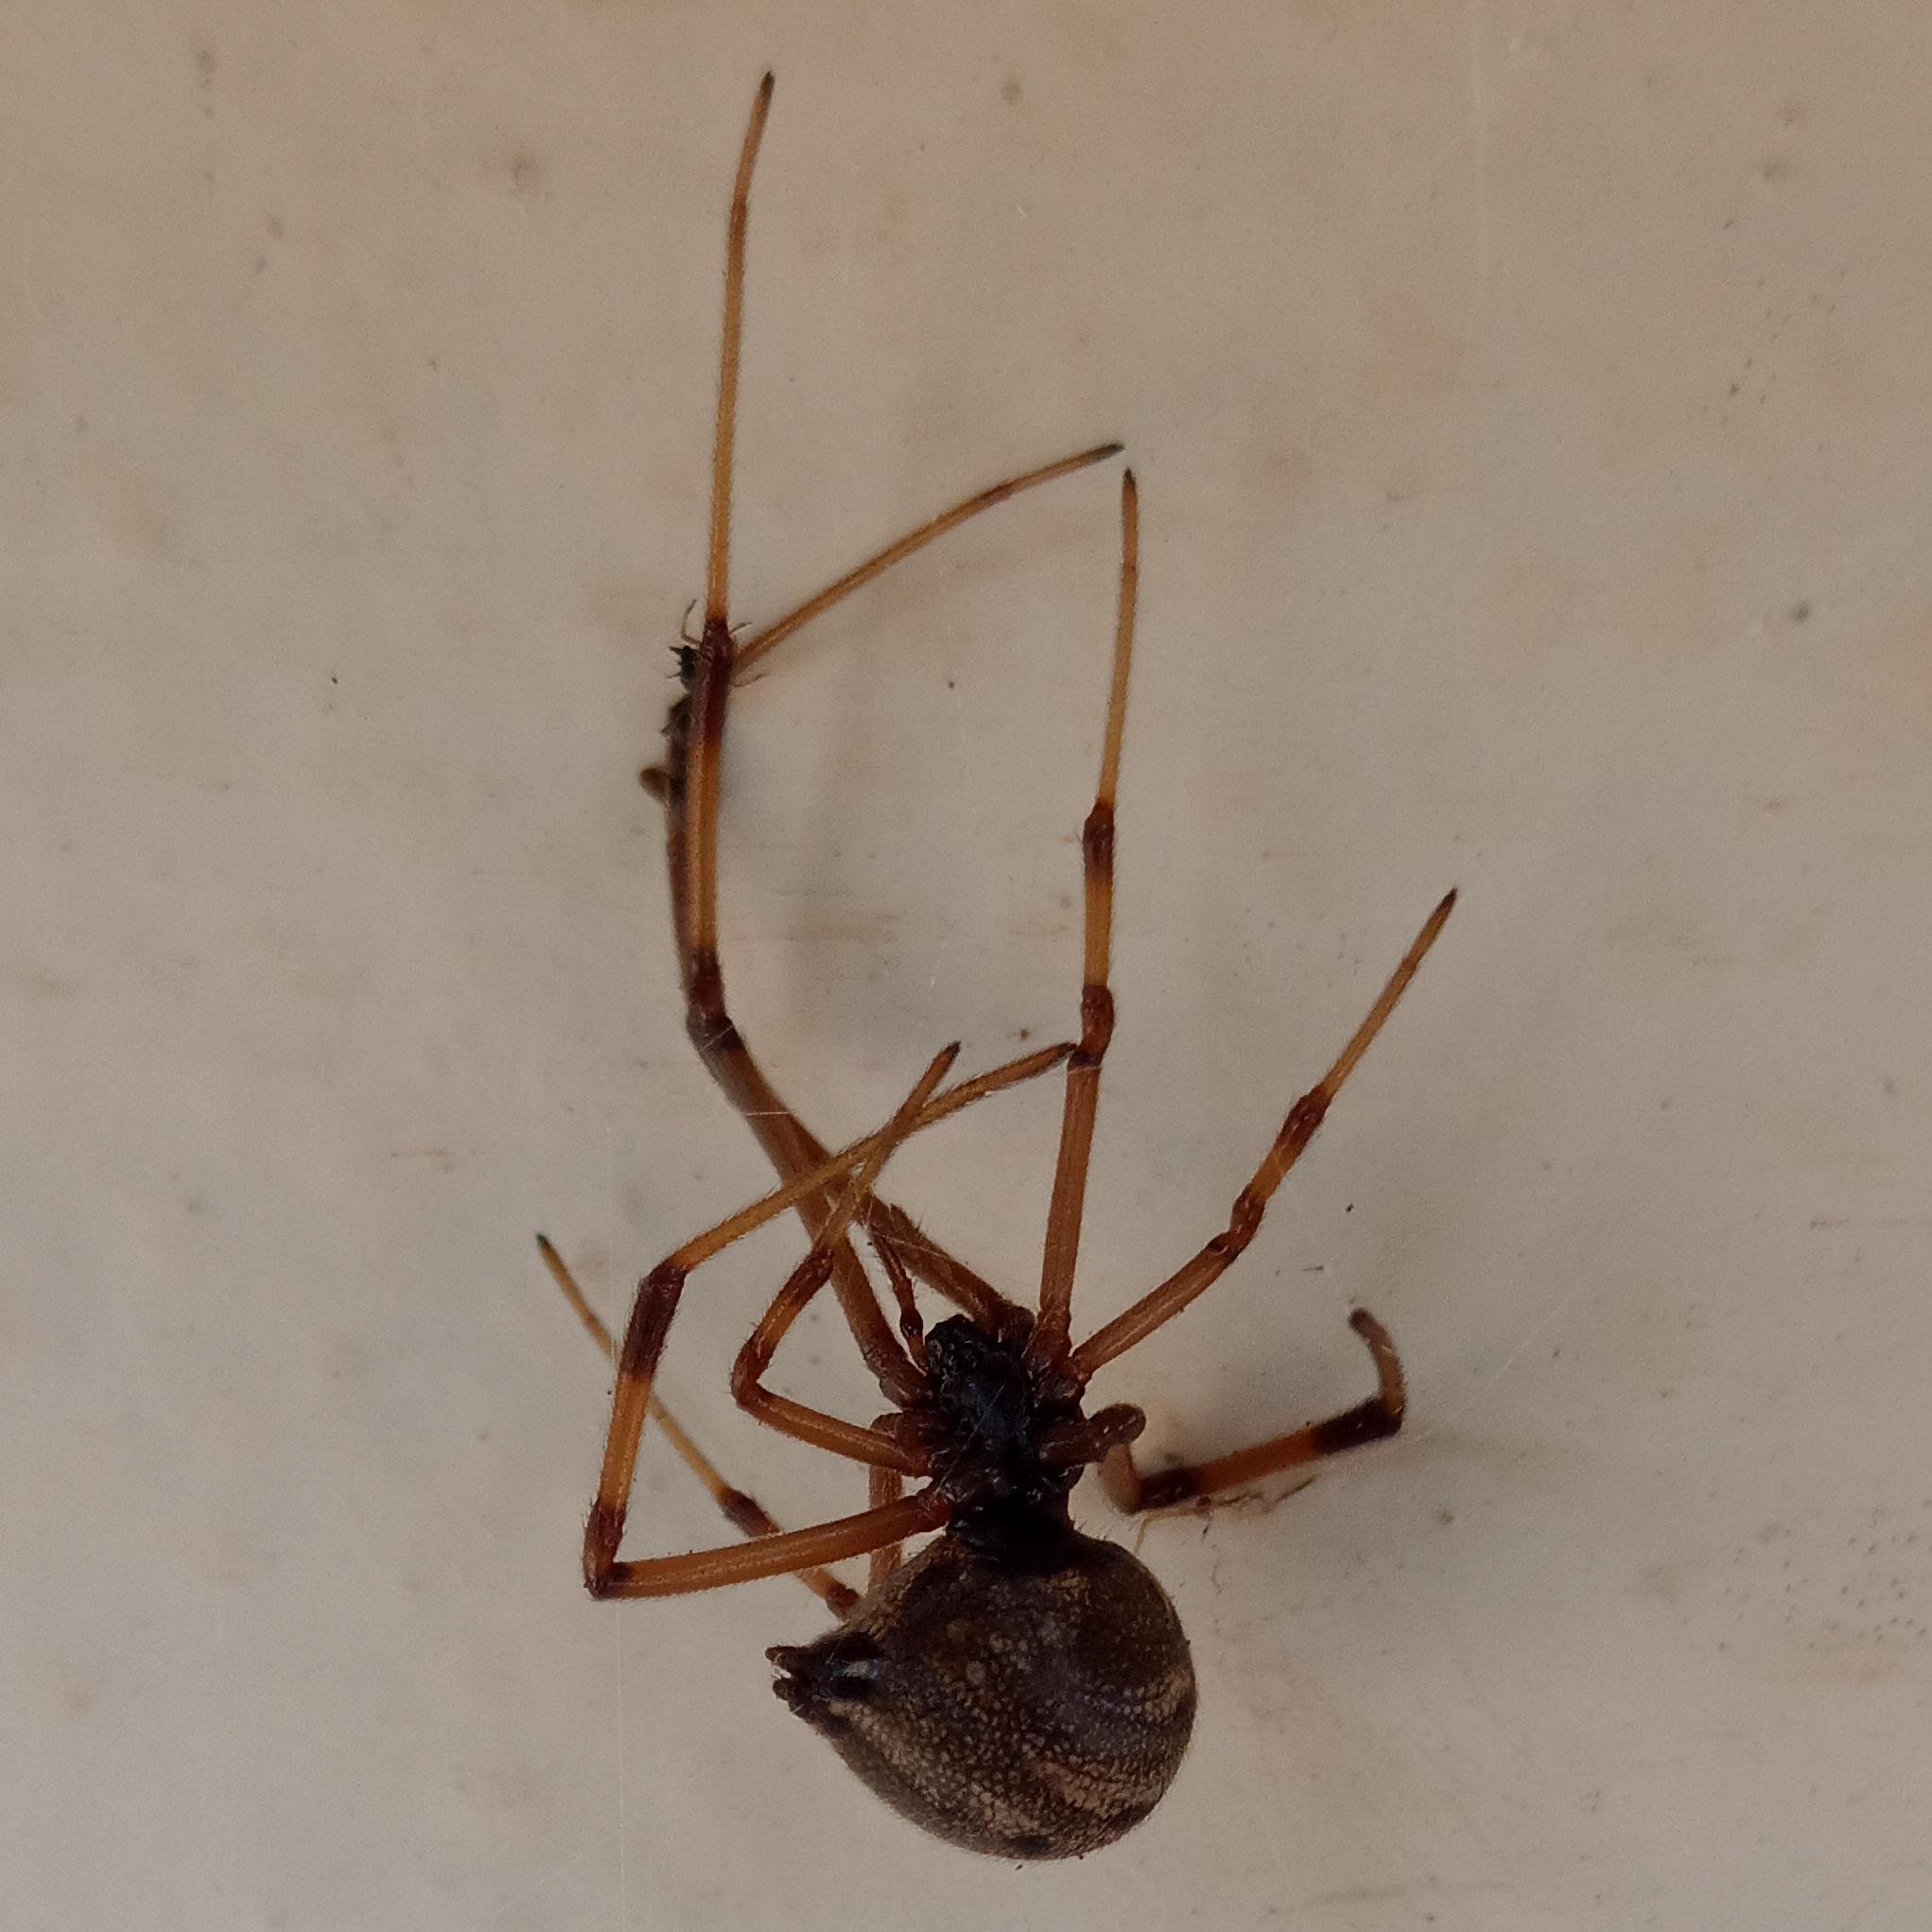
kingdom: Animalia
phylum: Arthropoda
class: Arachnida
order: Araneae
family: Theridiidae
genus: Latrodectus
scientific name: Latrodectus geometricus
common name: Brown widow spider
